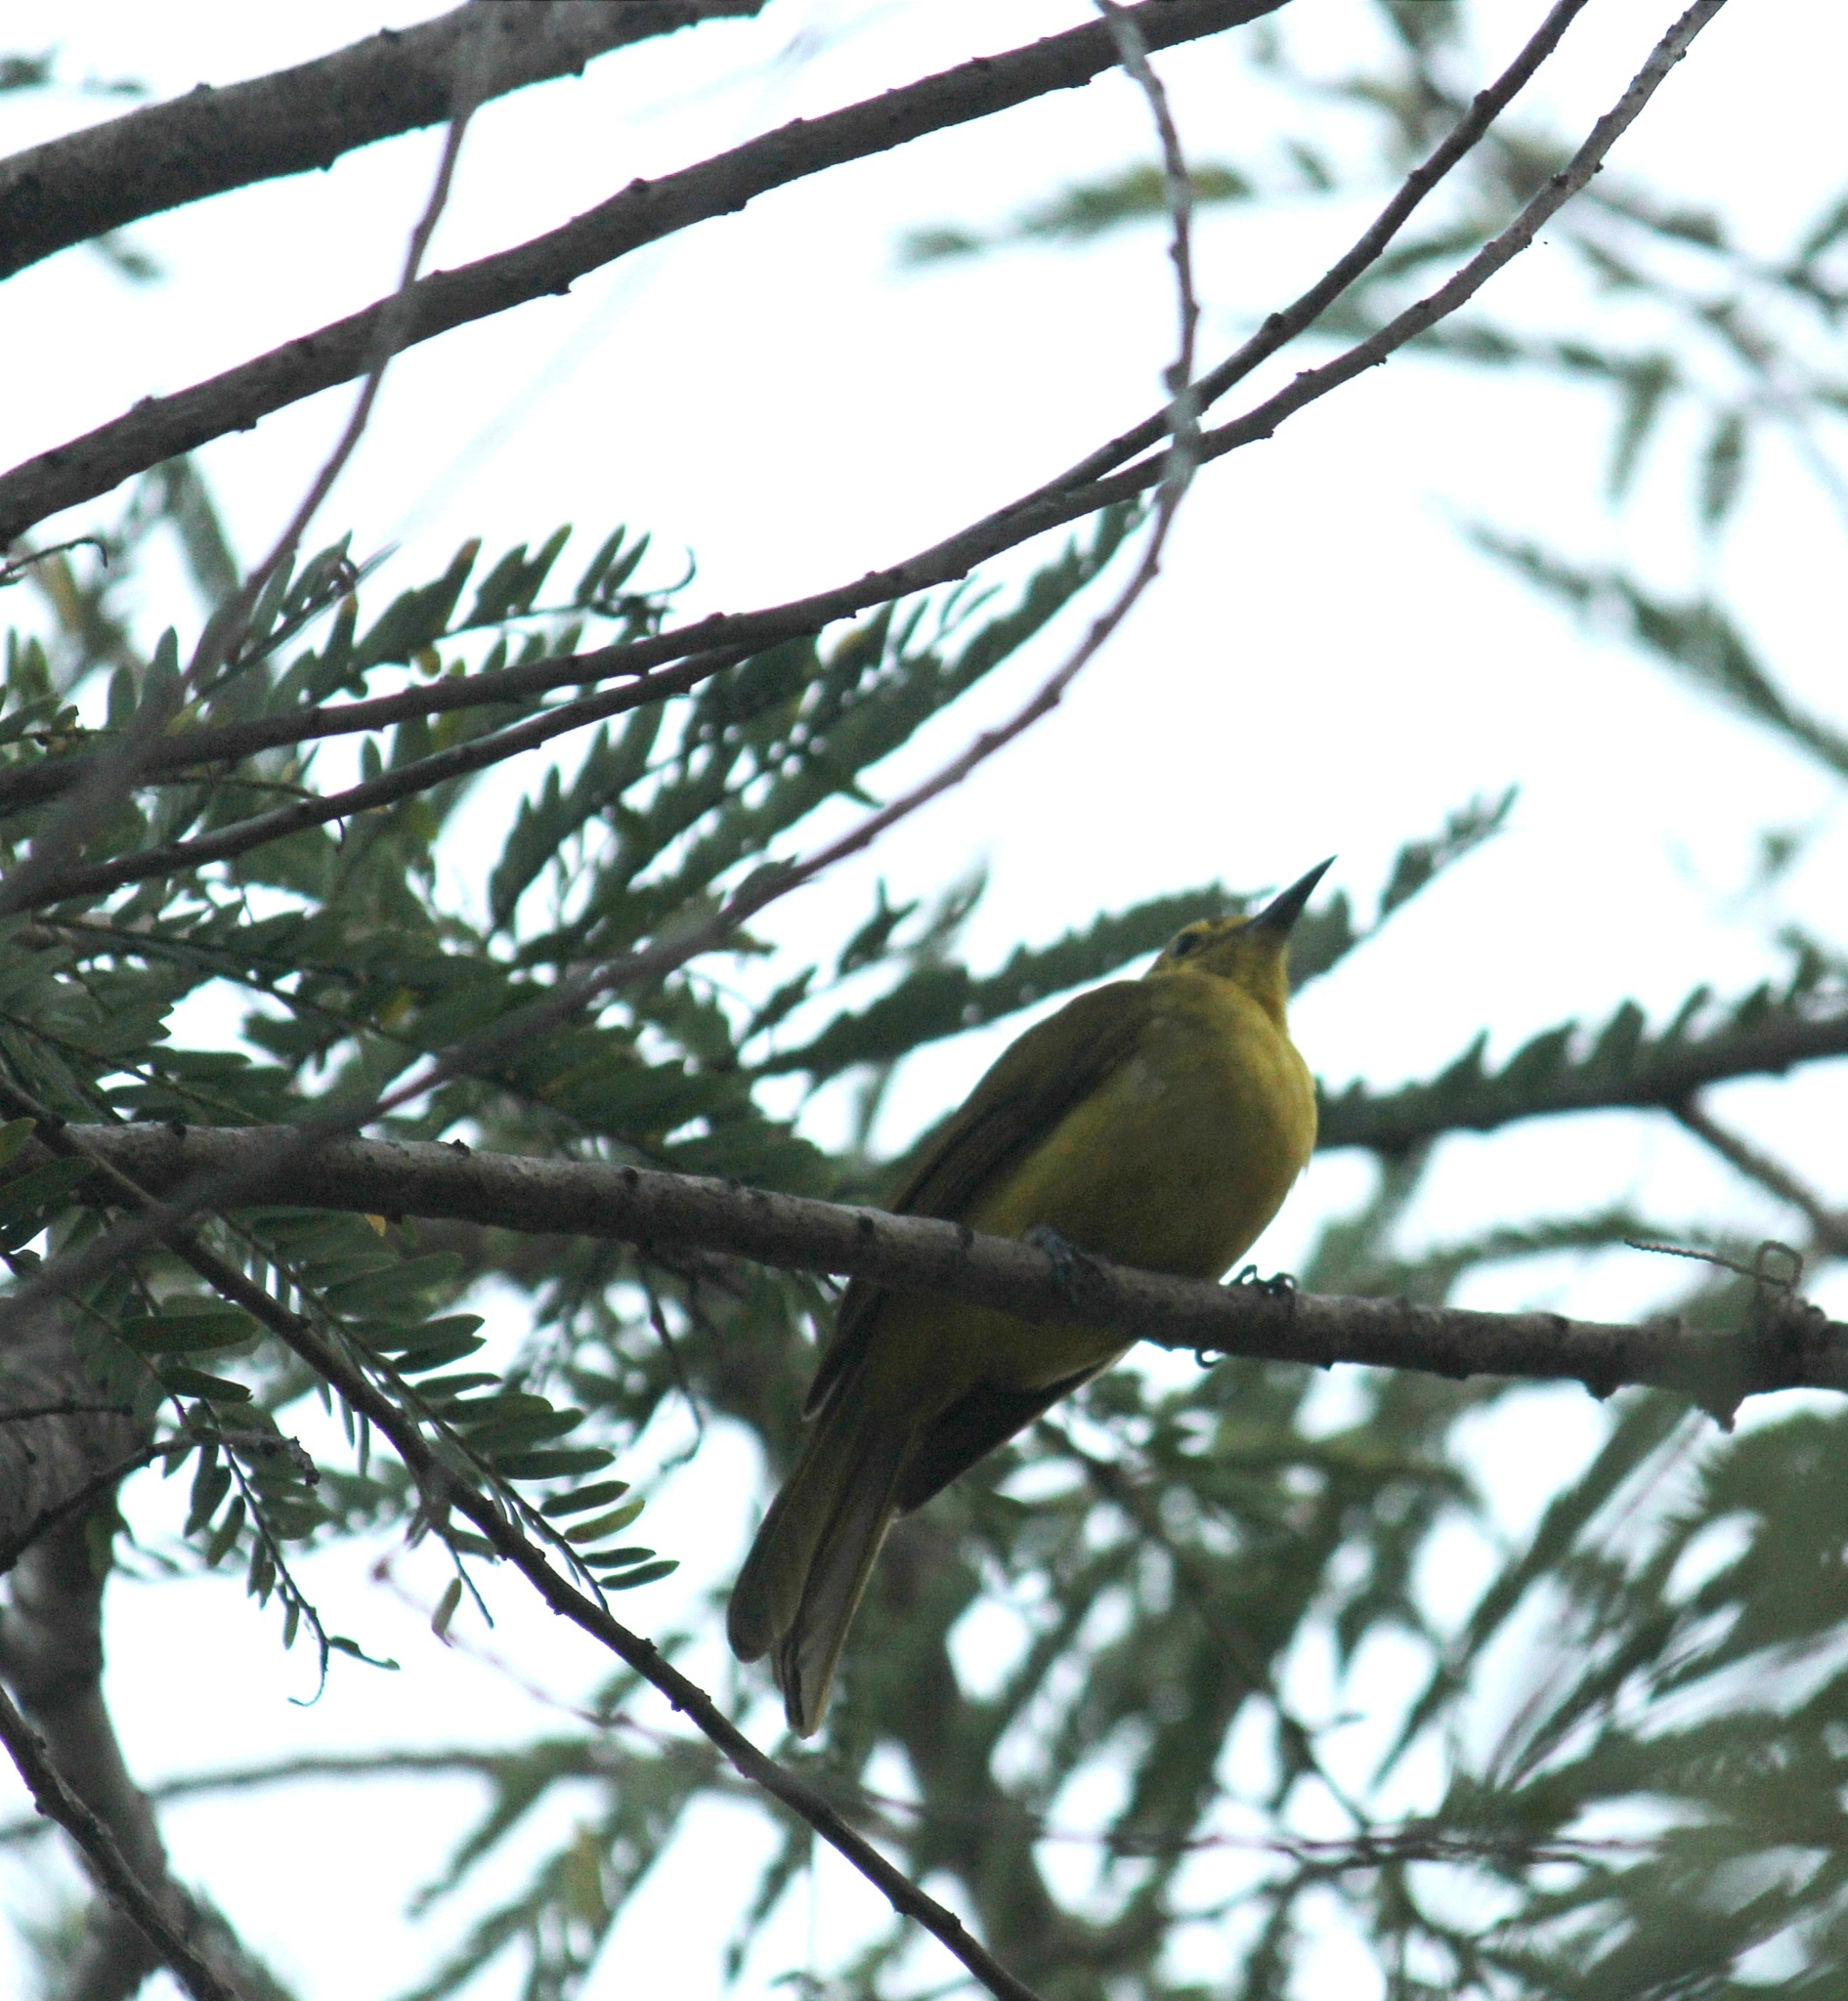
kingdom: Animalia
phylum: Chordata
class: Aves
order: Passeriformes
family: Pycnonotidae
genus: Acritillas
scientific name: Acritillas indica
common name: Yellow-browed bulbul
